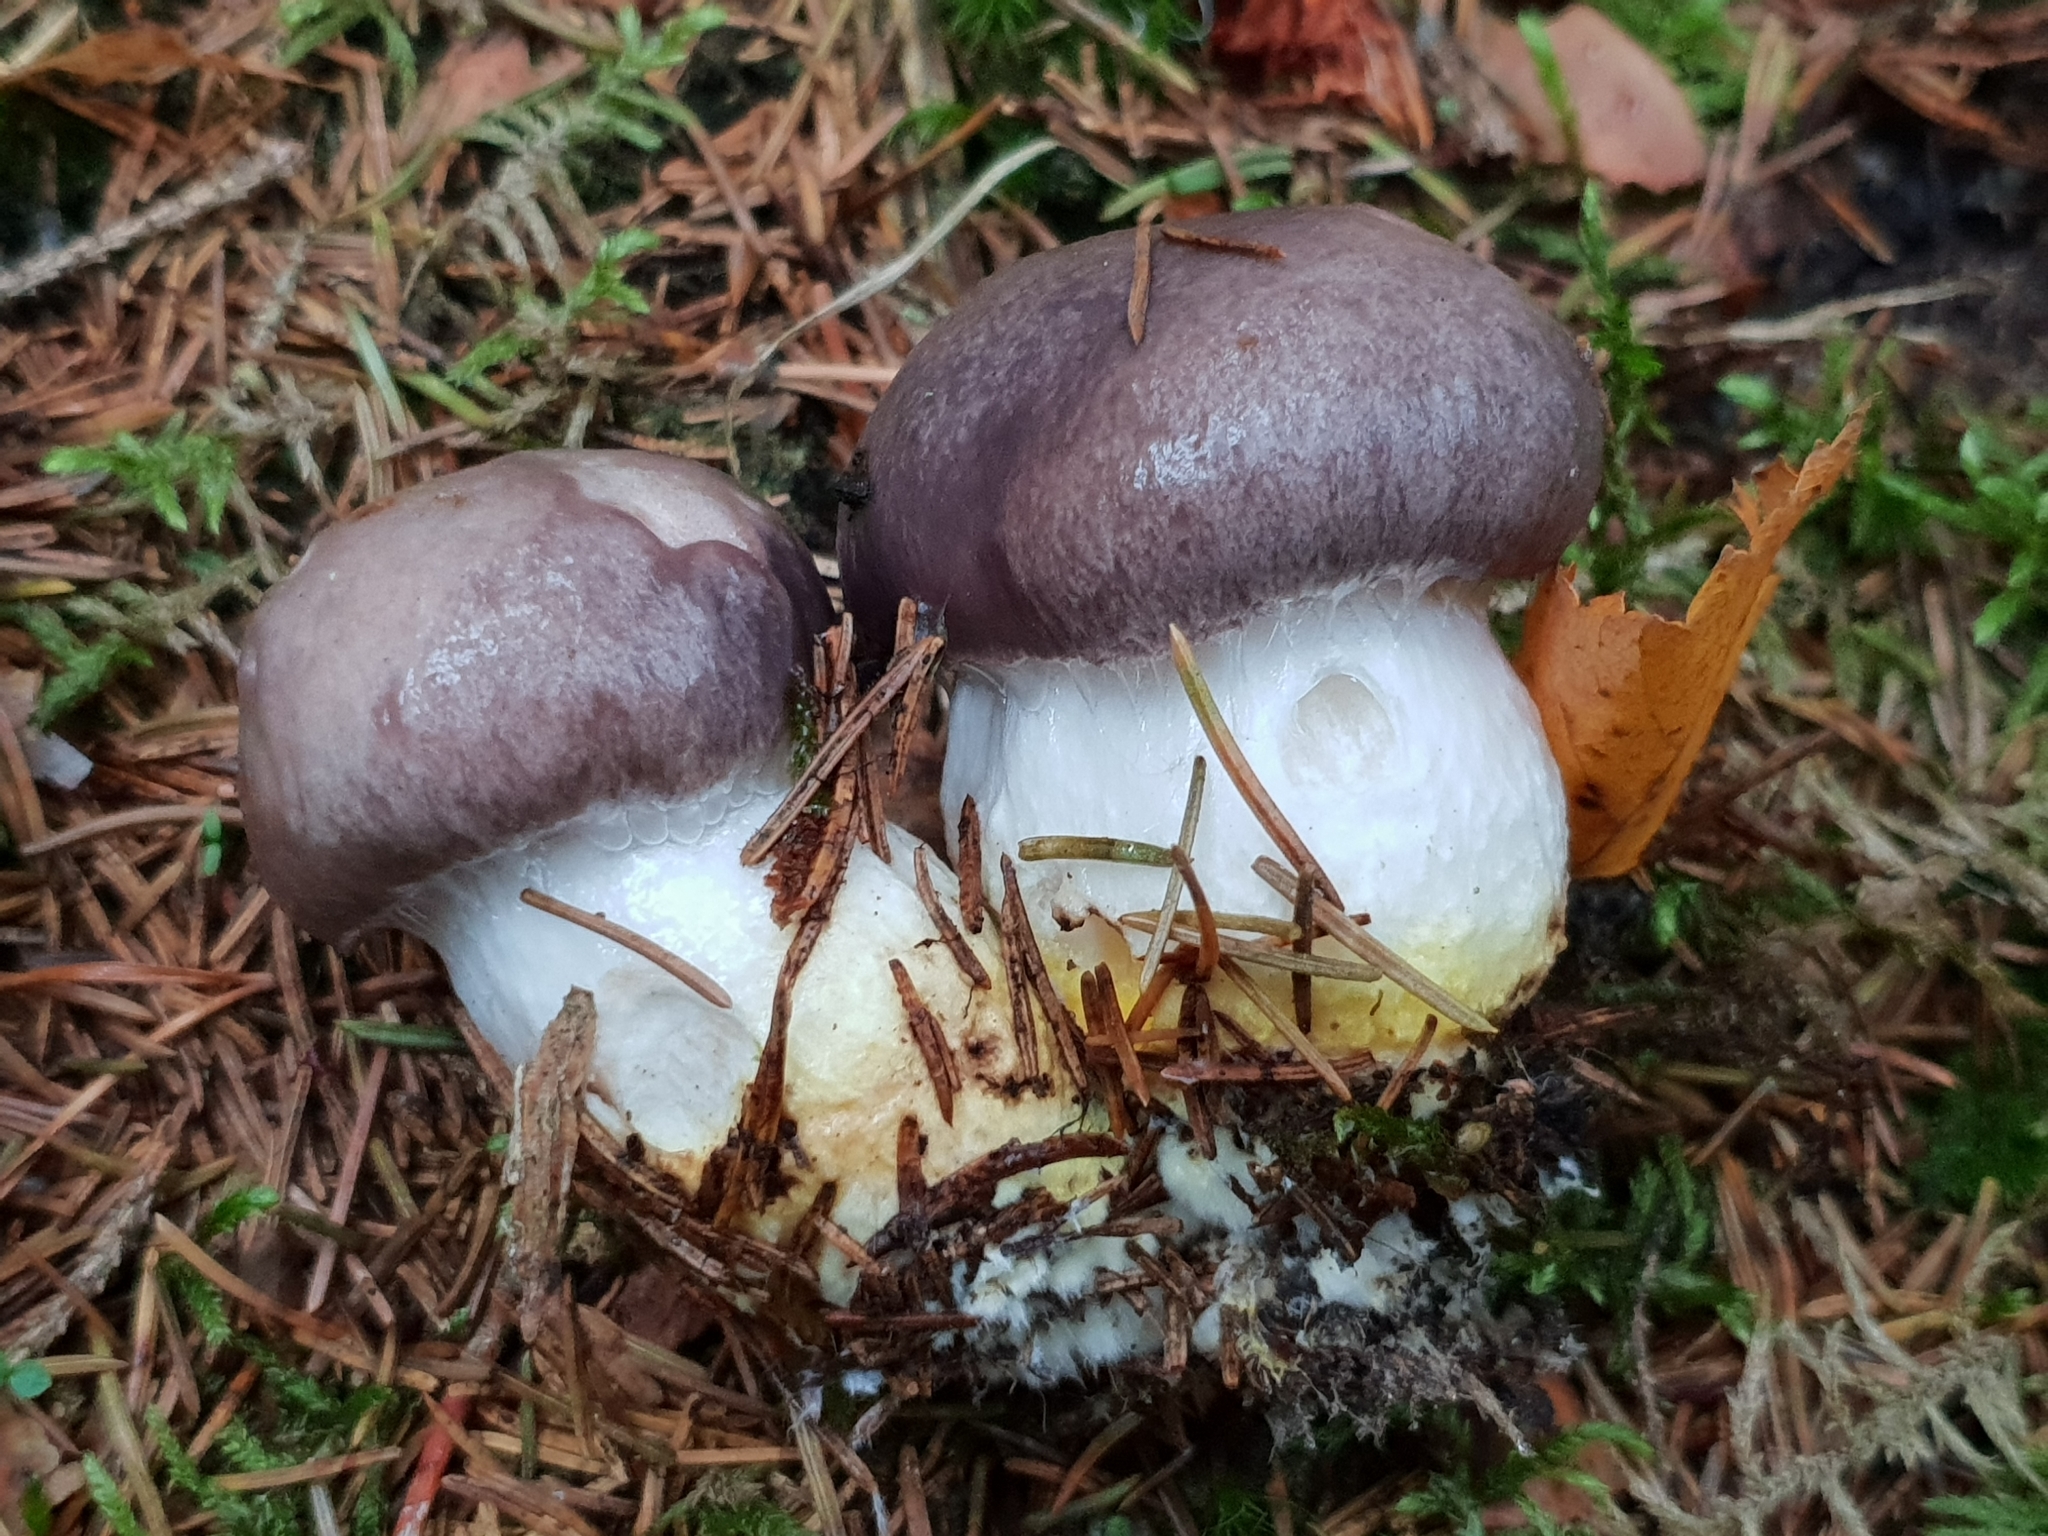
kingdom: Fungi
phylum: Basidiomycota
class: Agaricomycetes
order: Boletales
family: Gomphidiaceae
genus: Gomphidius
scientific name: Gomphidius glutinosus
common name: Slimy spike
